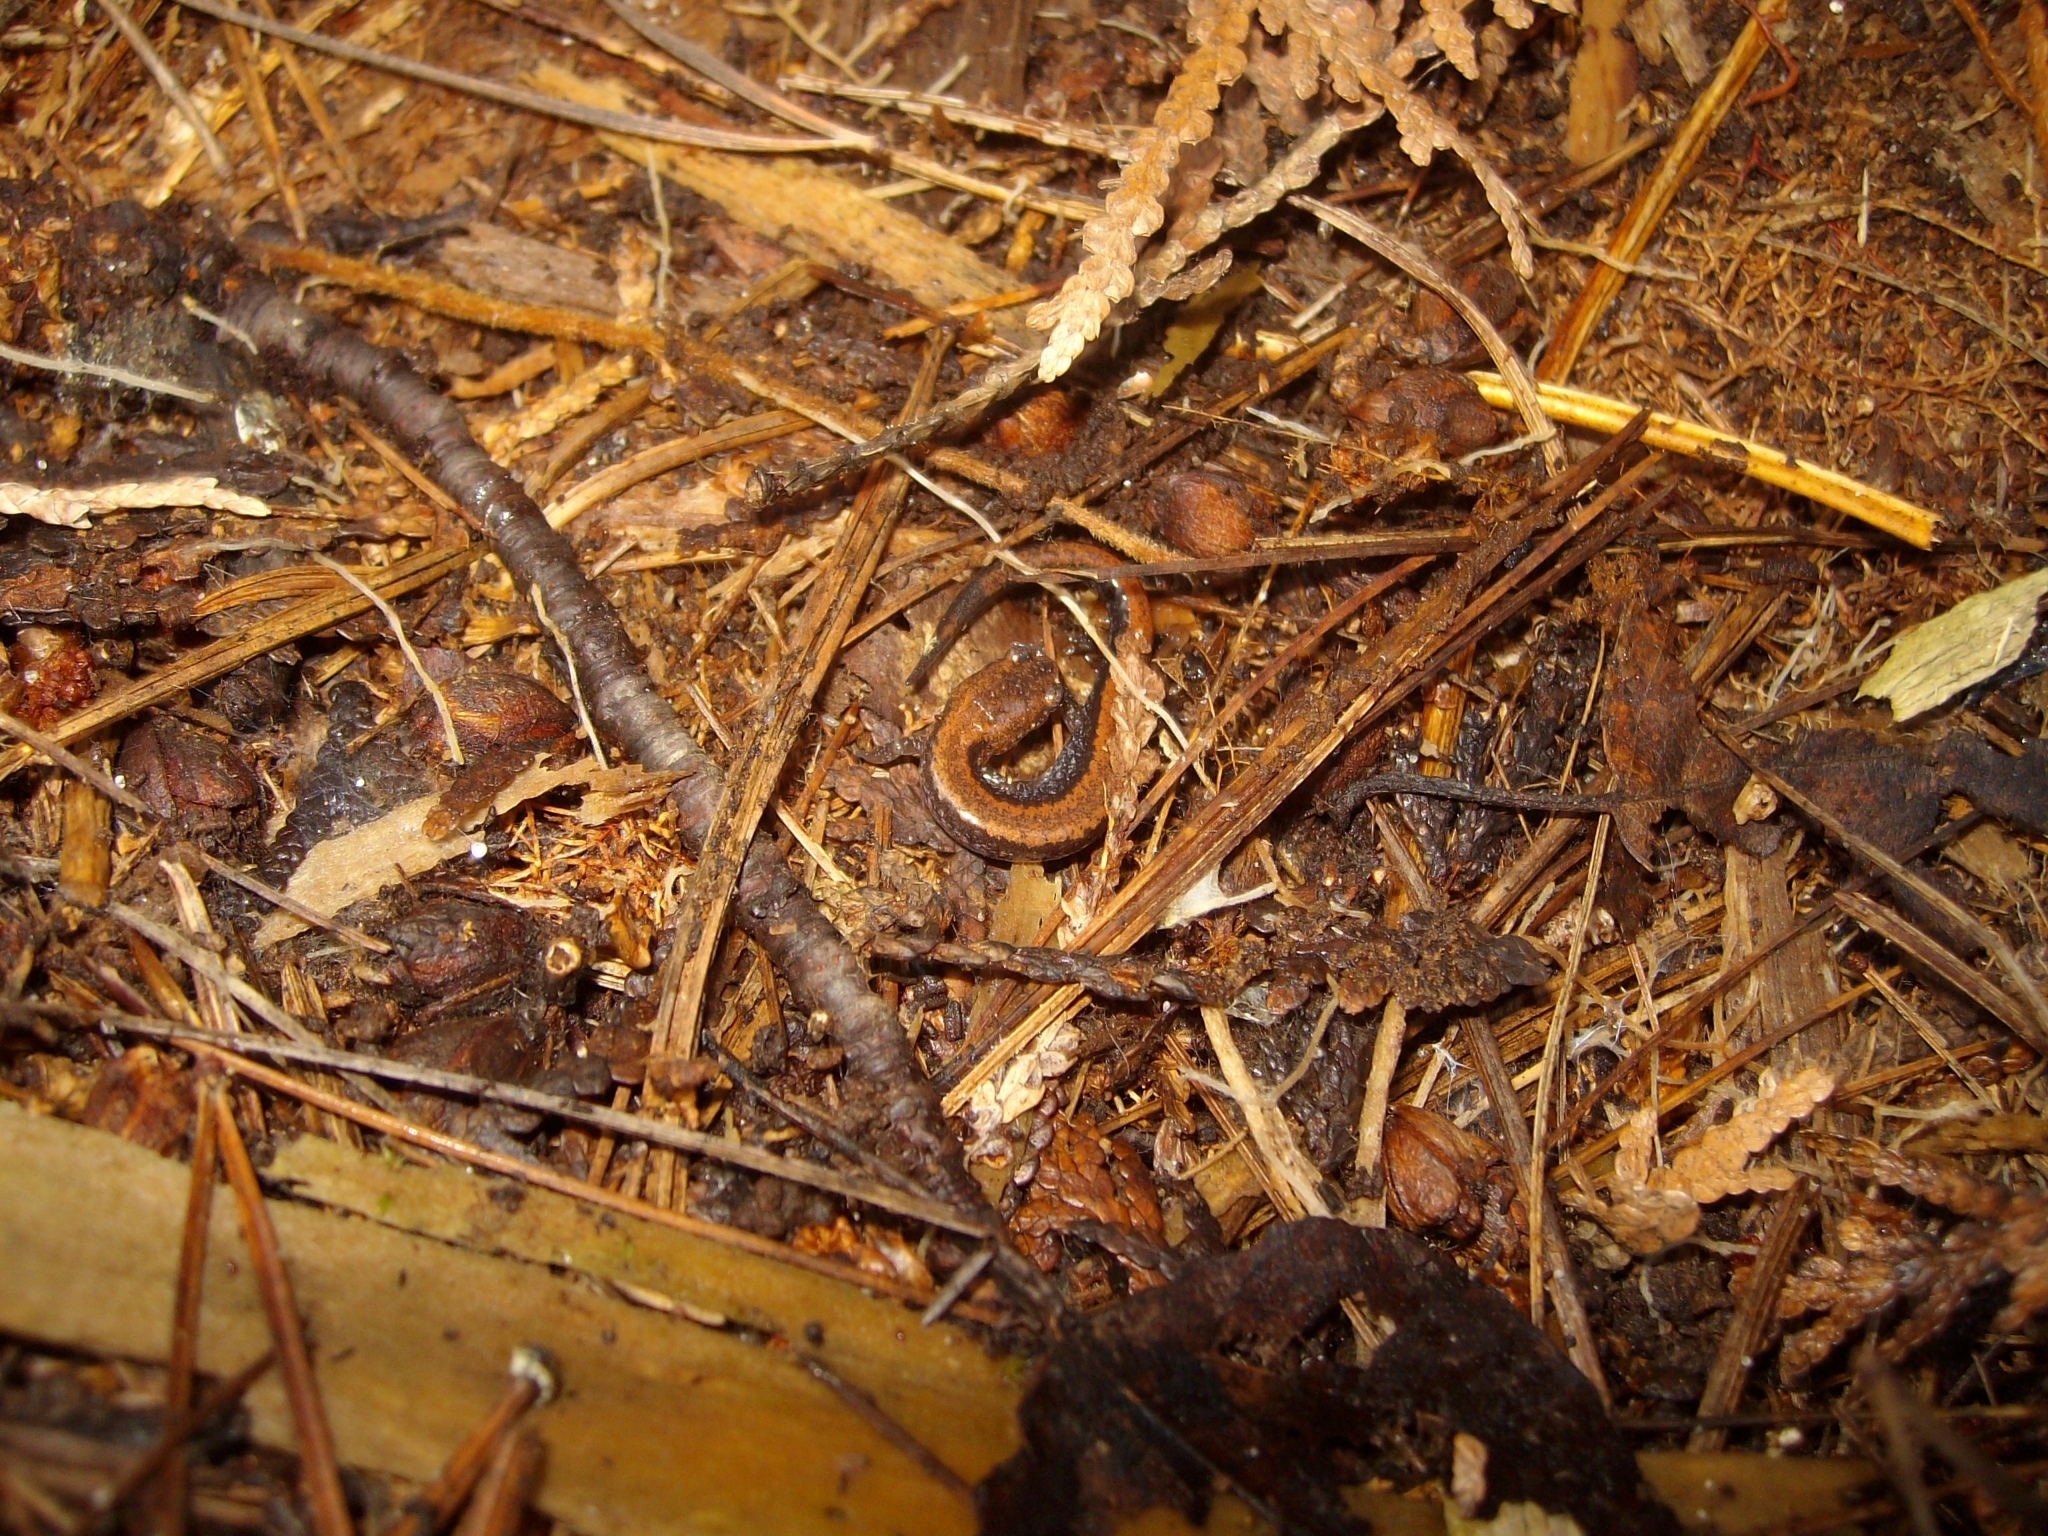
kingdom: Animalia
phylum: Chordata
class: Amphibia
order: Caudata
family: Plethodontidae
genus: Plethodon
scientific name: Plethodon cinereus
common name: Redback salamander
